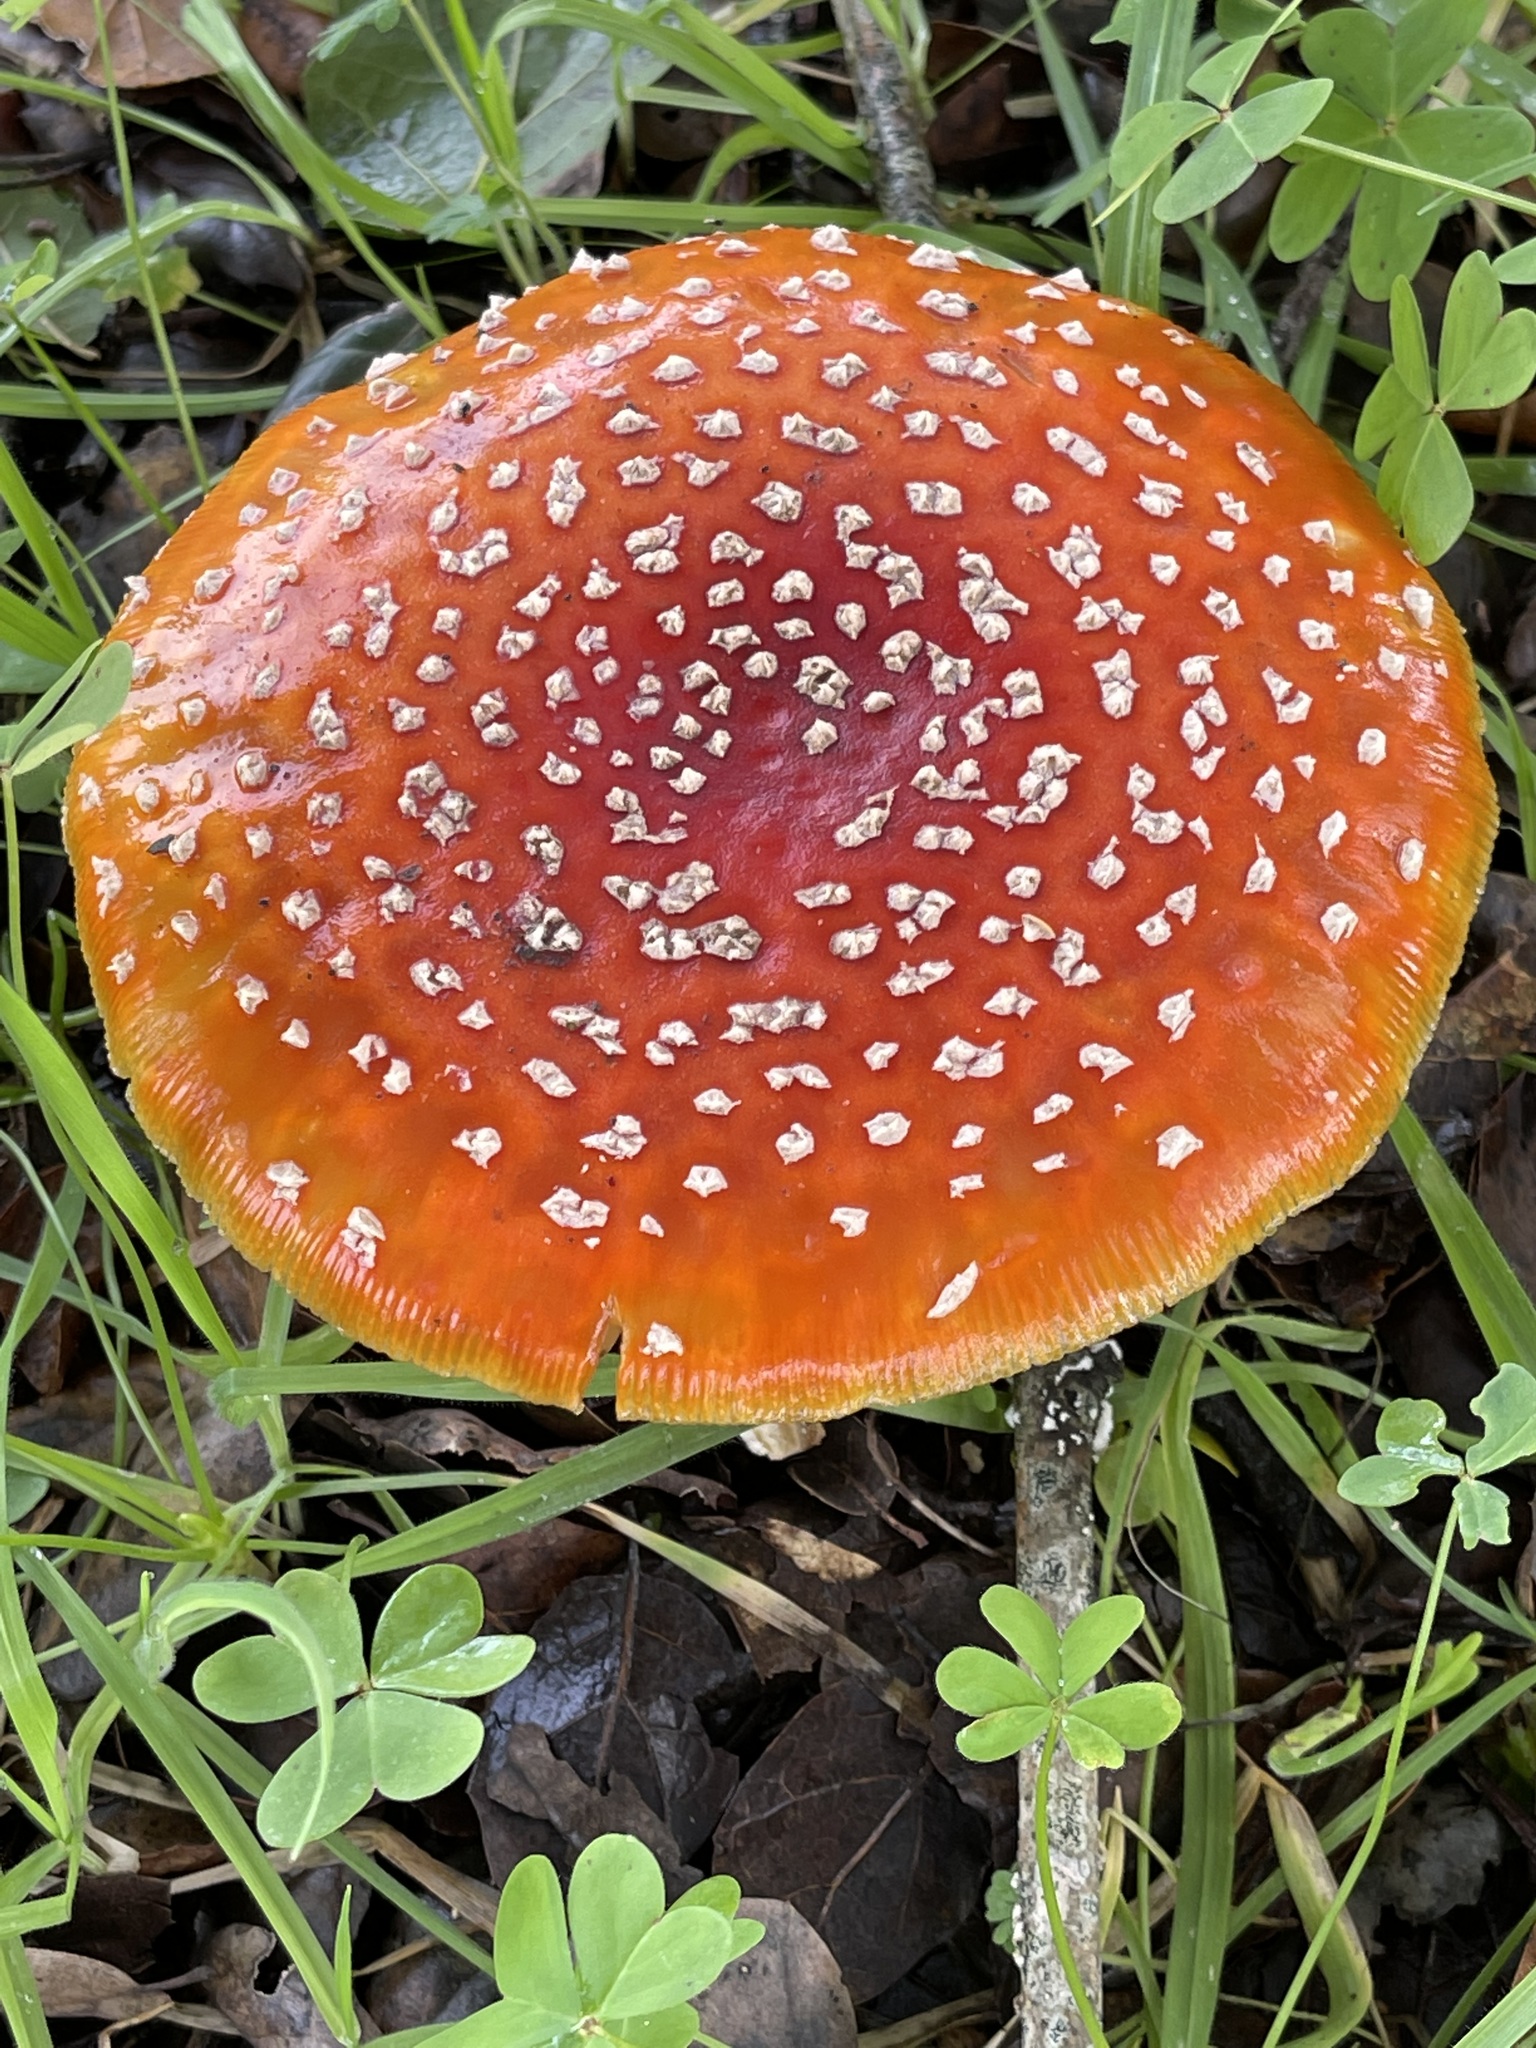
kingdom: Fungi
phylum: Basidiomycota
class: Agaricomycetes
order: Agaricales
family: Amanitaceae
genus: Amanita
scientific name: Amanita muscaria
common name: Fly agaric
